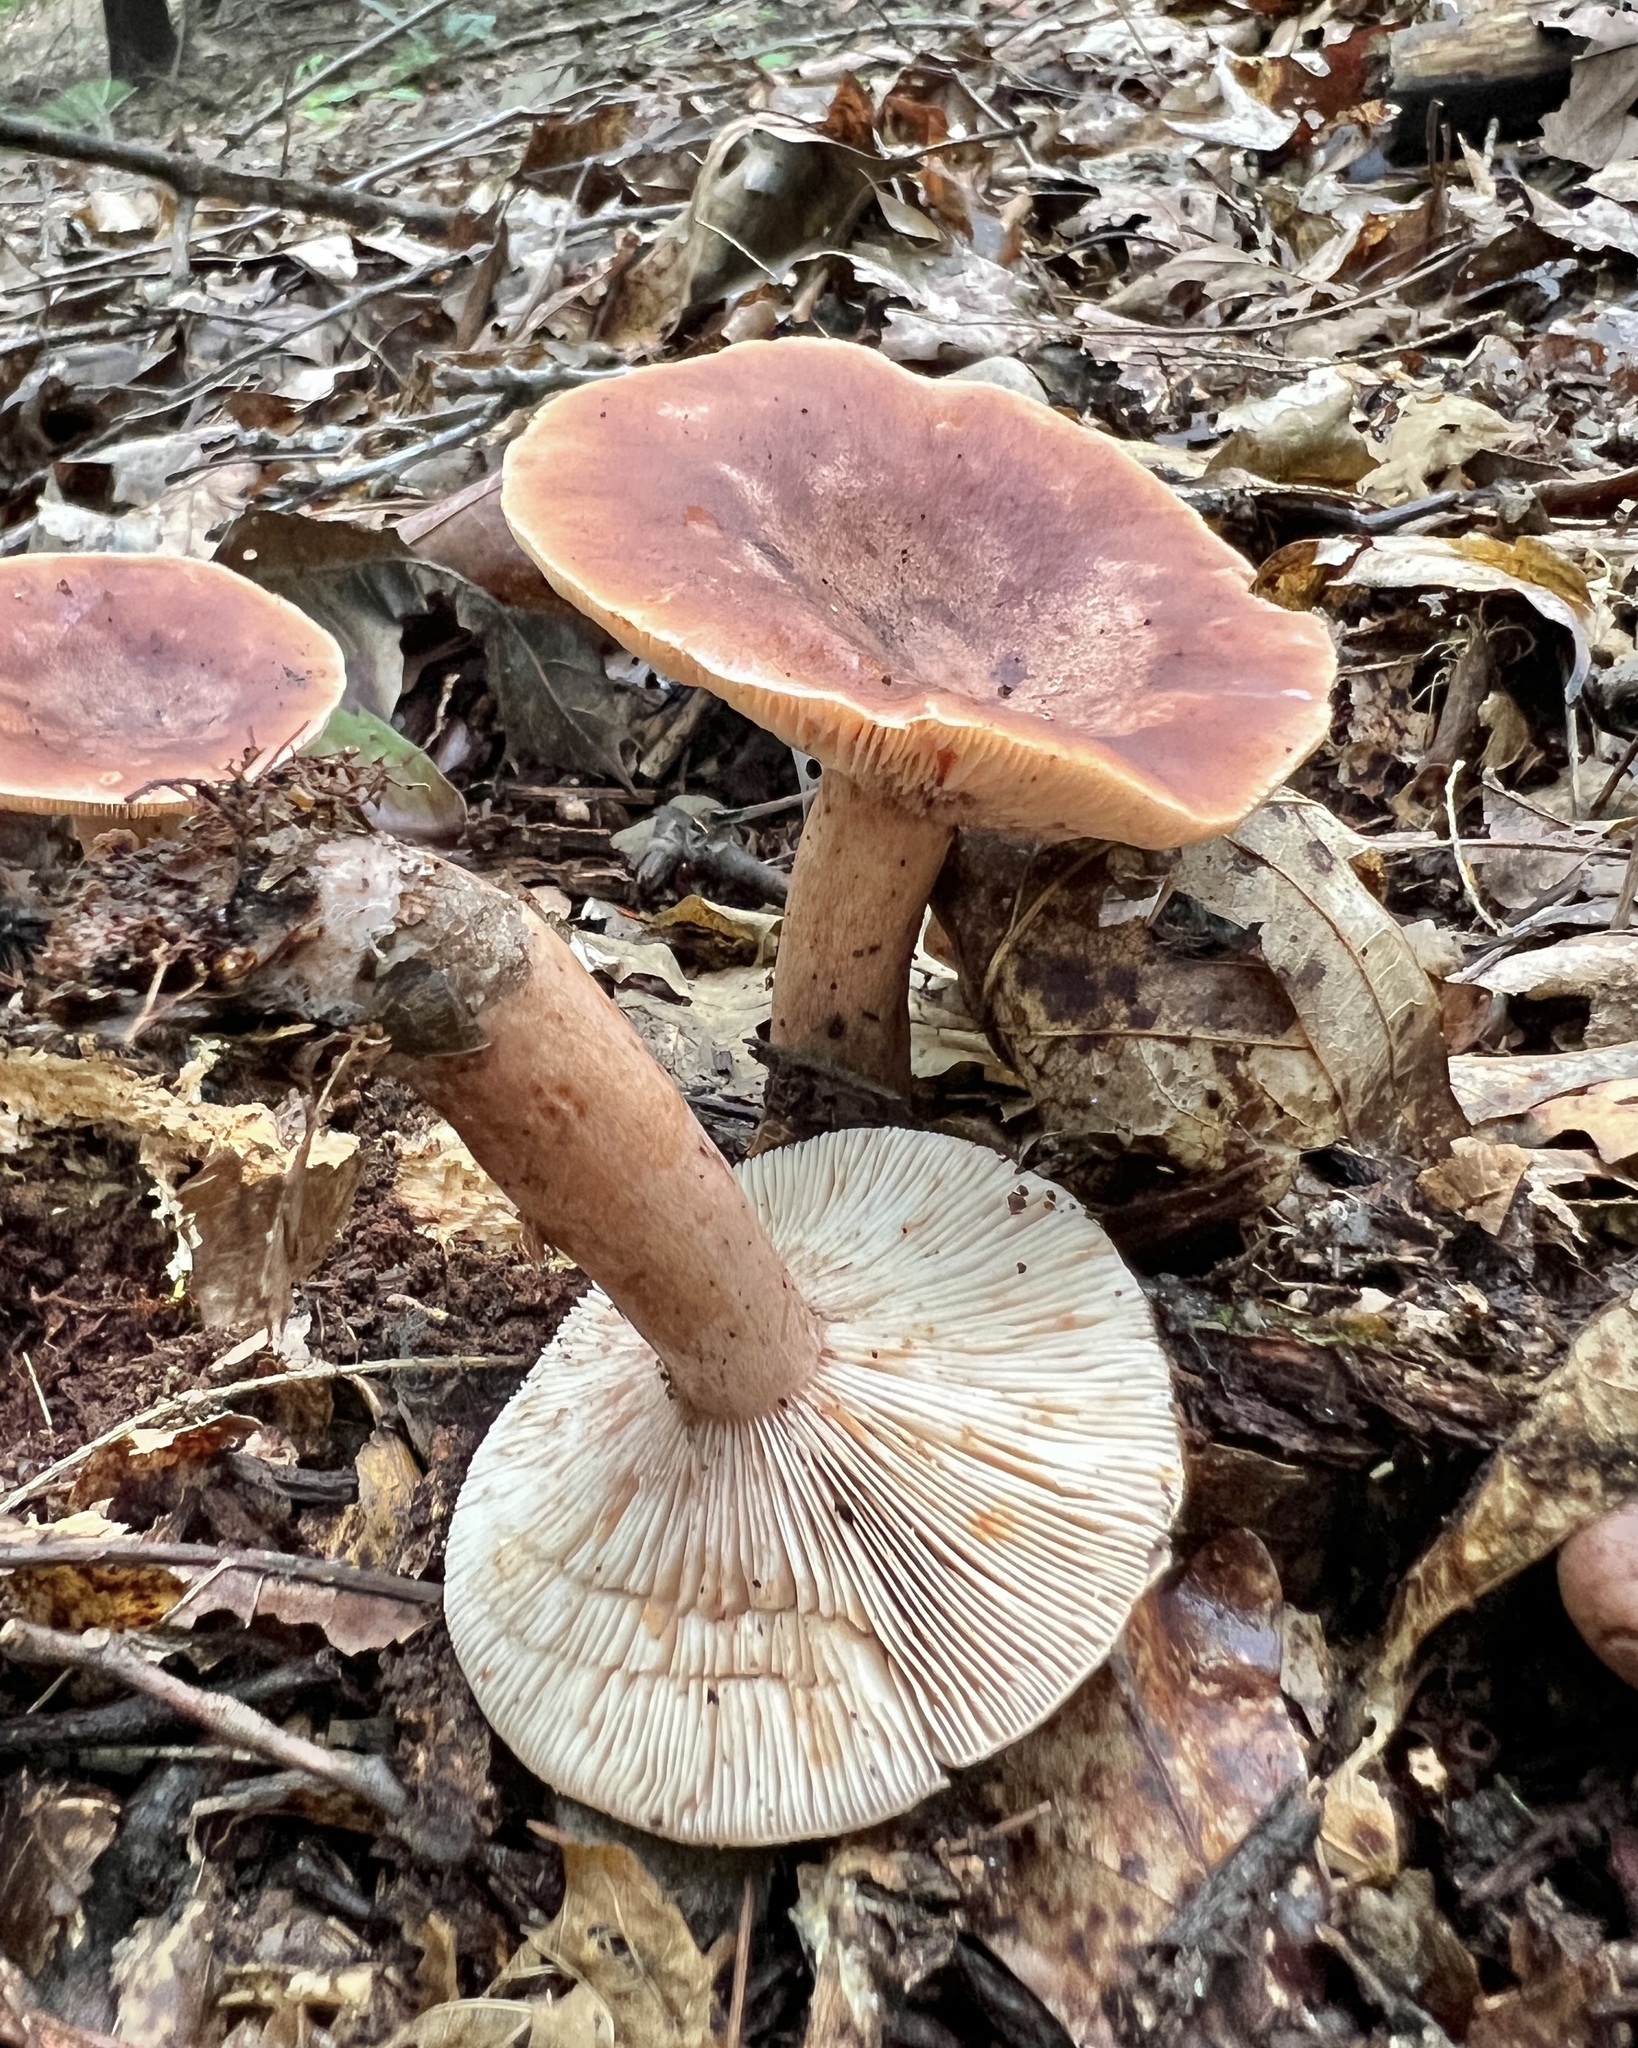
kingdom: Fungi
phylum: Basidiomycota
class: Agaricomycetes
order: Russulales
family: Russulaceae
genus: Lactarius
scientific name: Lactarius quietus
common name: Oak milk-cap
